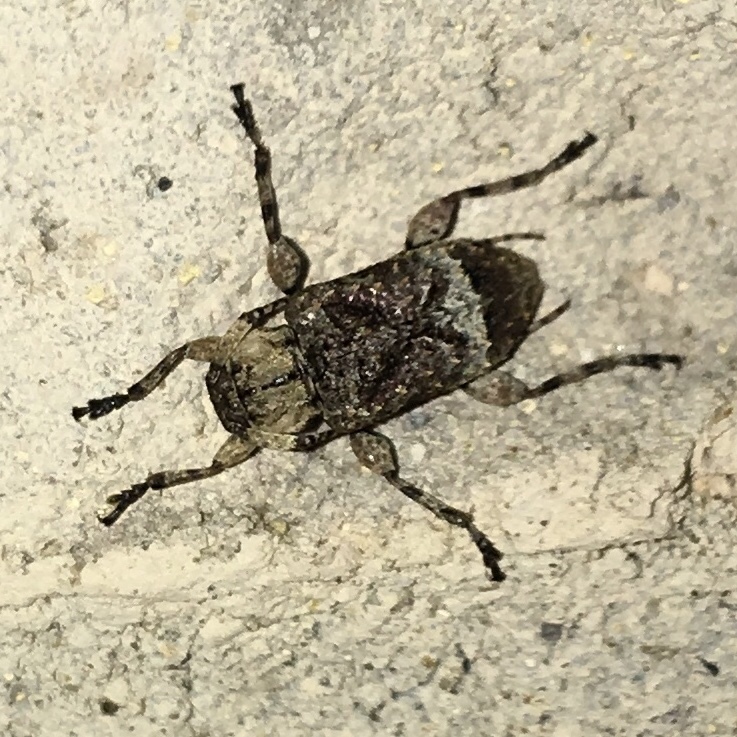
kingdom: Animalia
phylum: Arthropoda
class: Insecta
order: Coleoptera
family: Cerambycidae
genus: Leptostylus
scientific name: Leptostylus transversus
